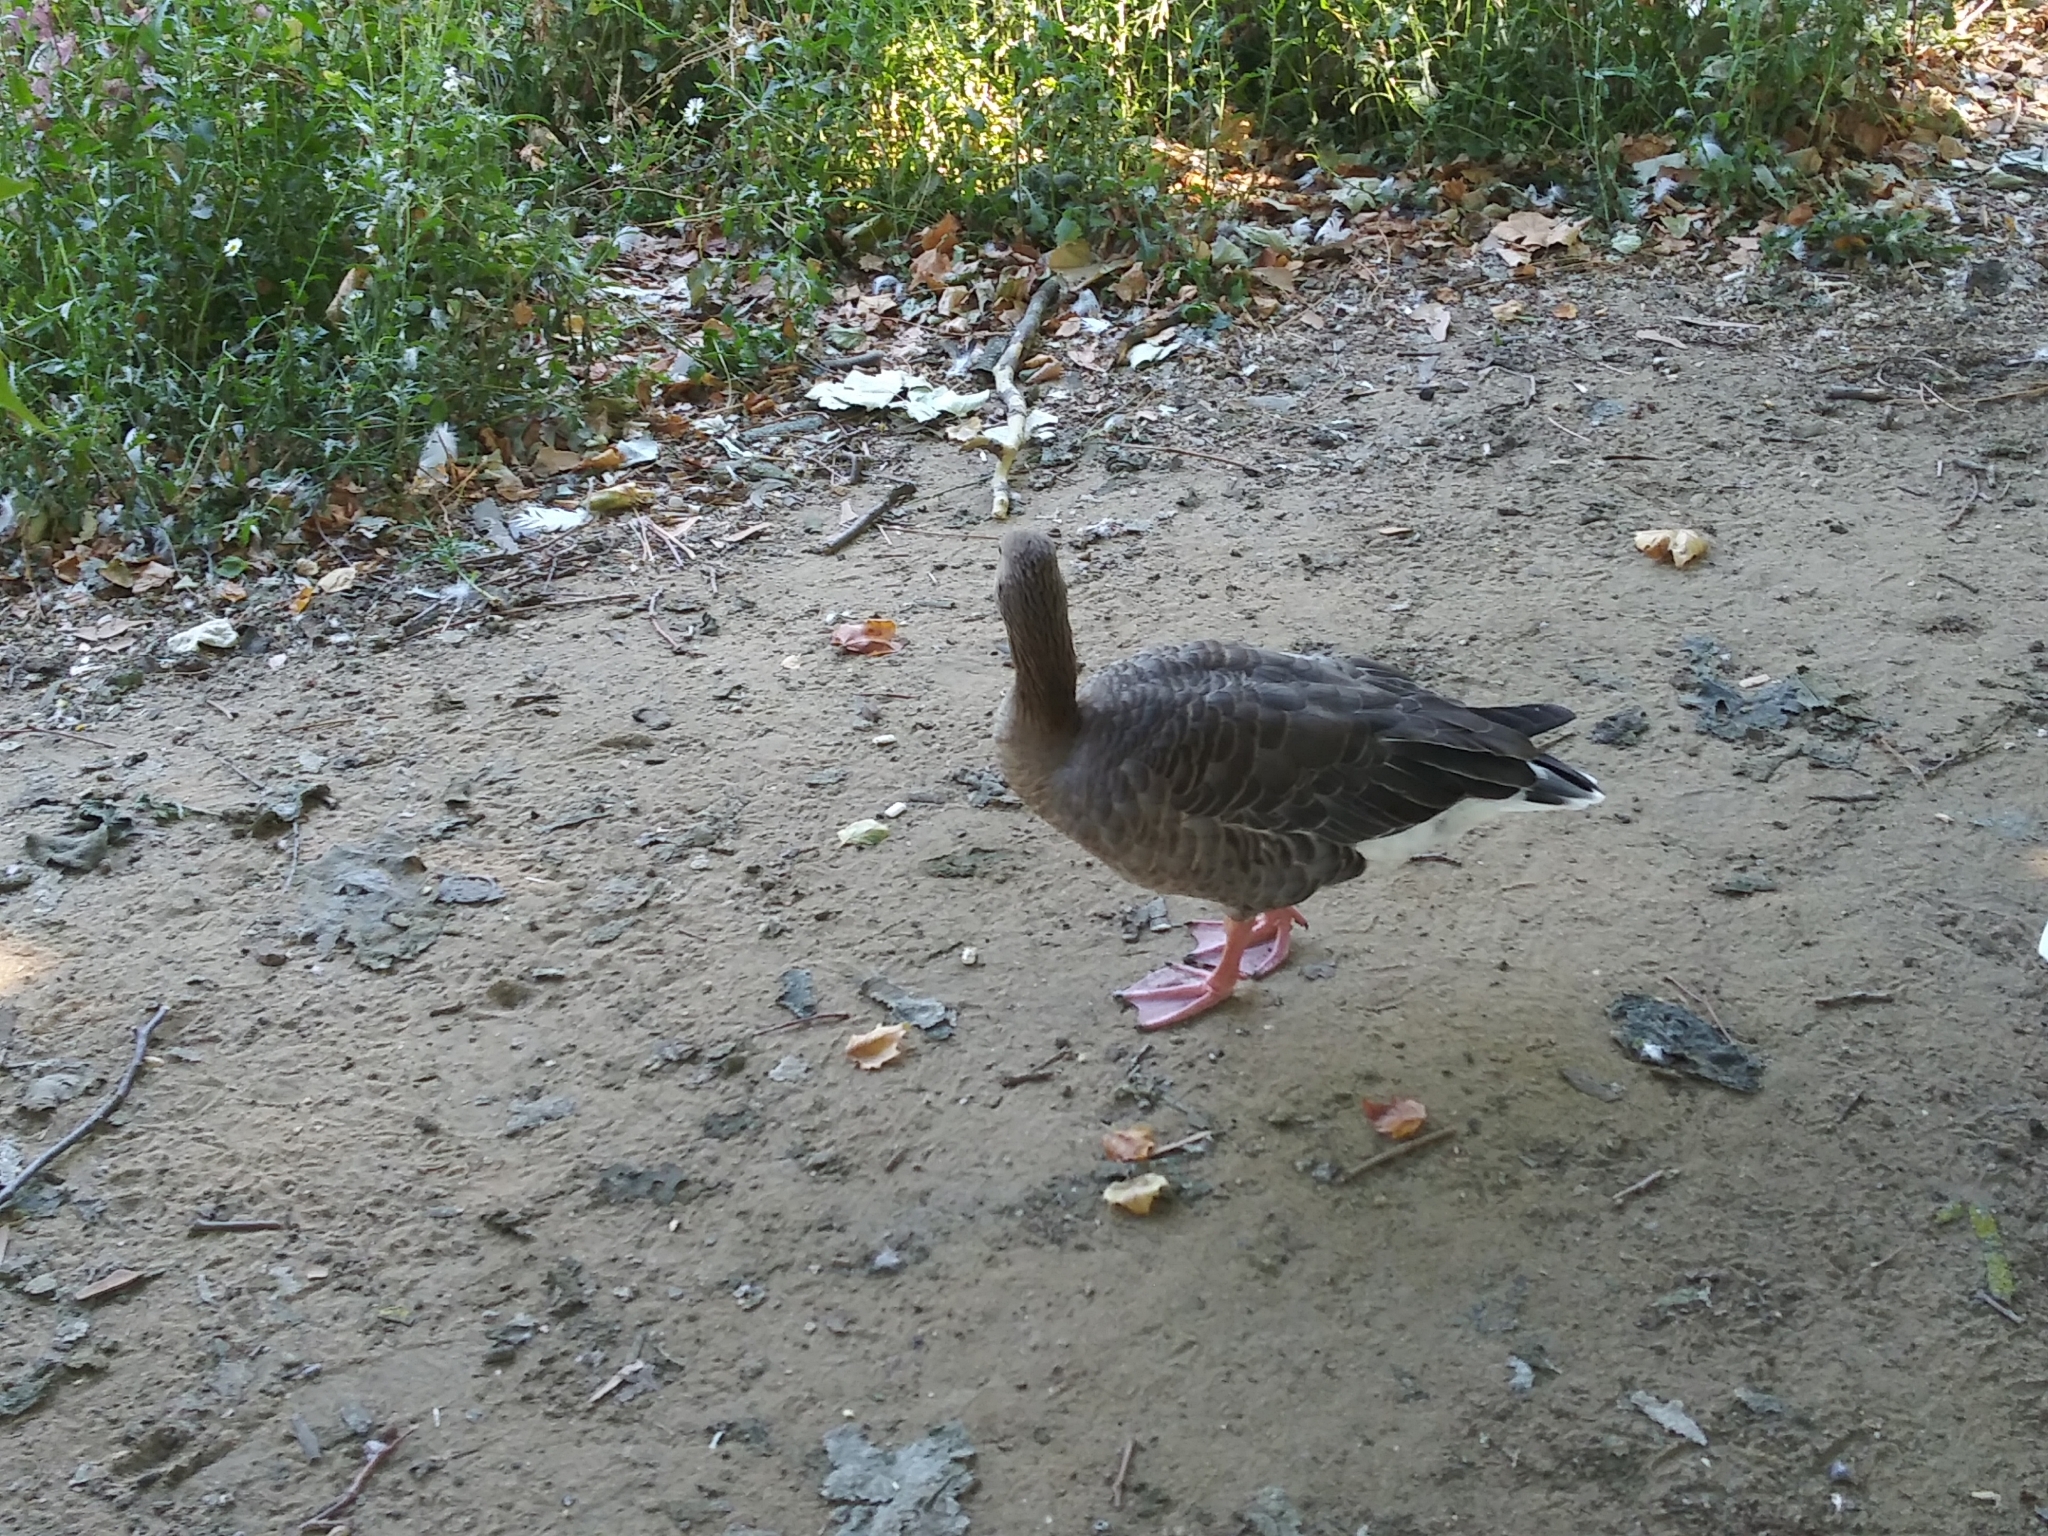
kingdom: Animalia
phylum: Chordata
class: Aves
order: Anseriformes
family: Anatidae
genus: Anser
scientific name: Anser anser
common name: Greylag goose
